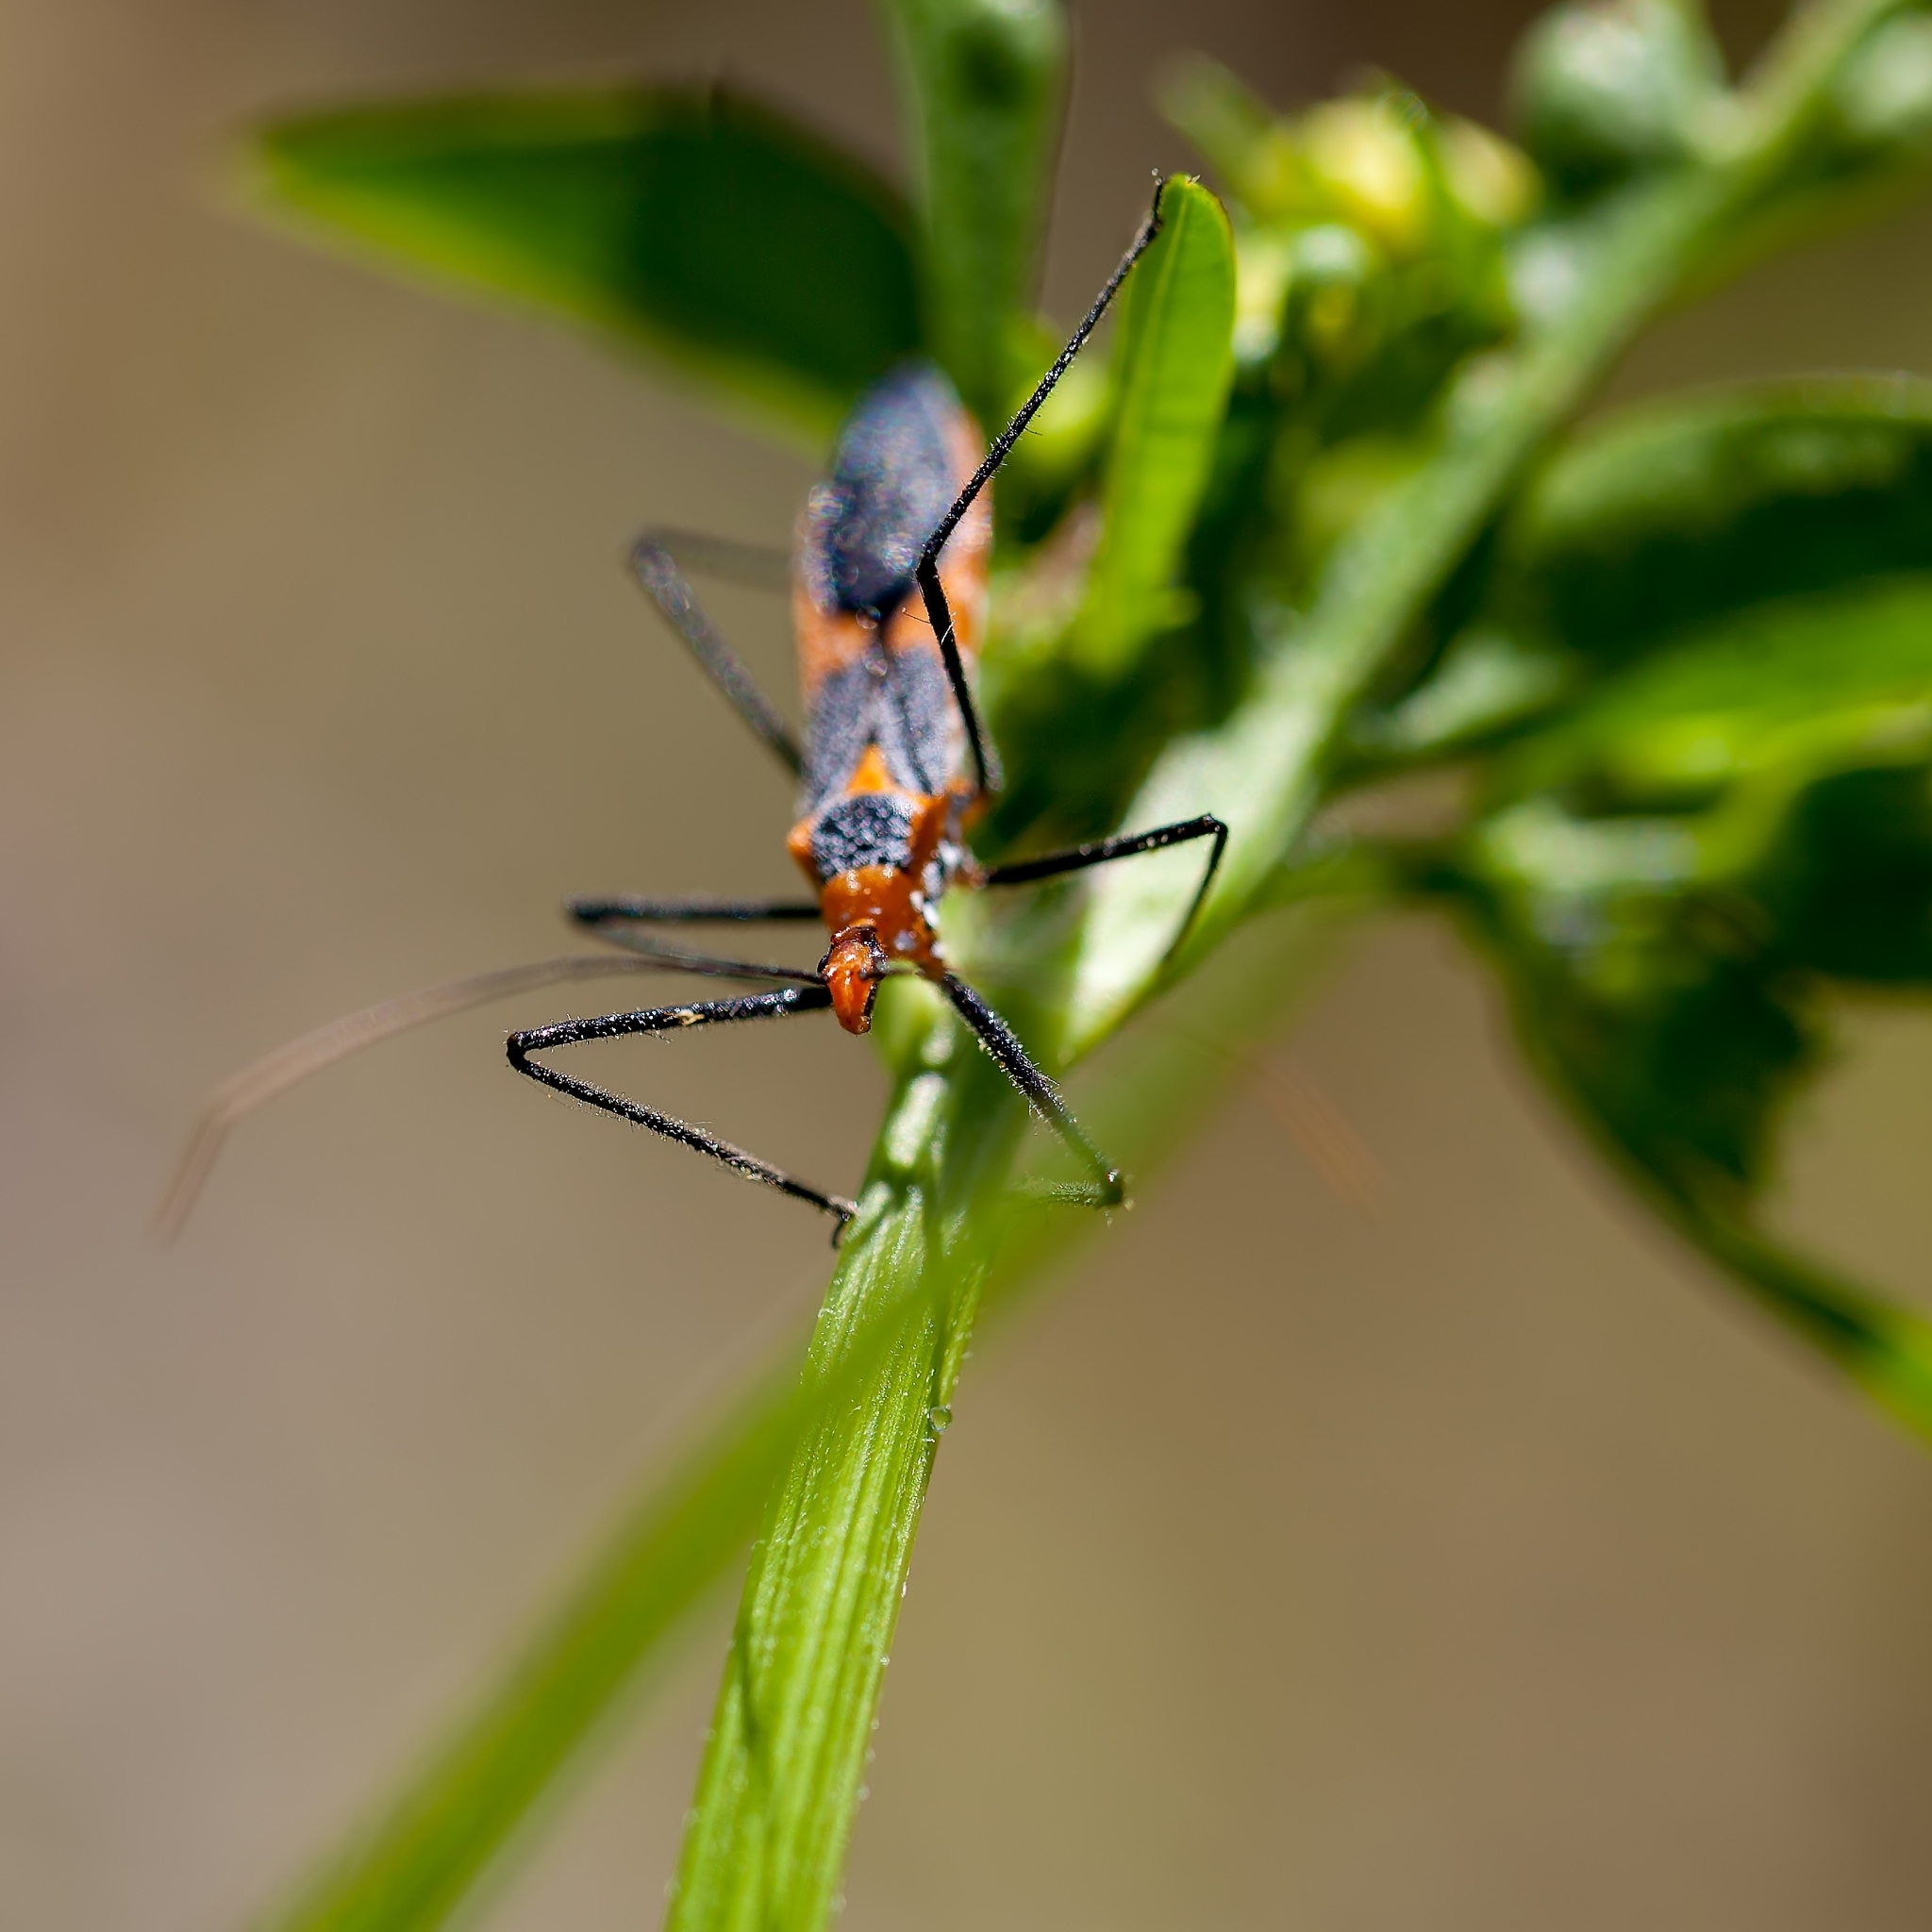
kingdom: Animalia
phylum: Arthropoda
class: Insecta
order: Hemiptera
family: Reduviidae
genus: Zelus
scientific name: Zelus longipes
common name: Milkweed assassin bug
